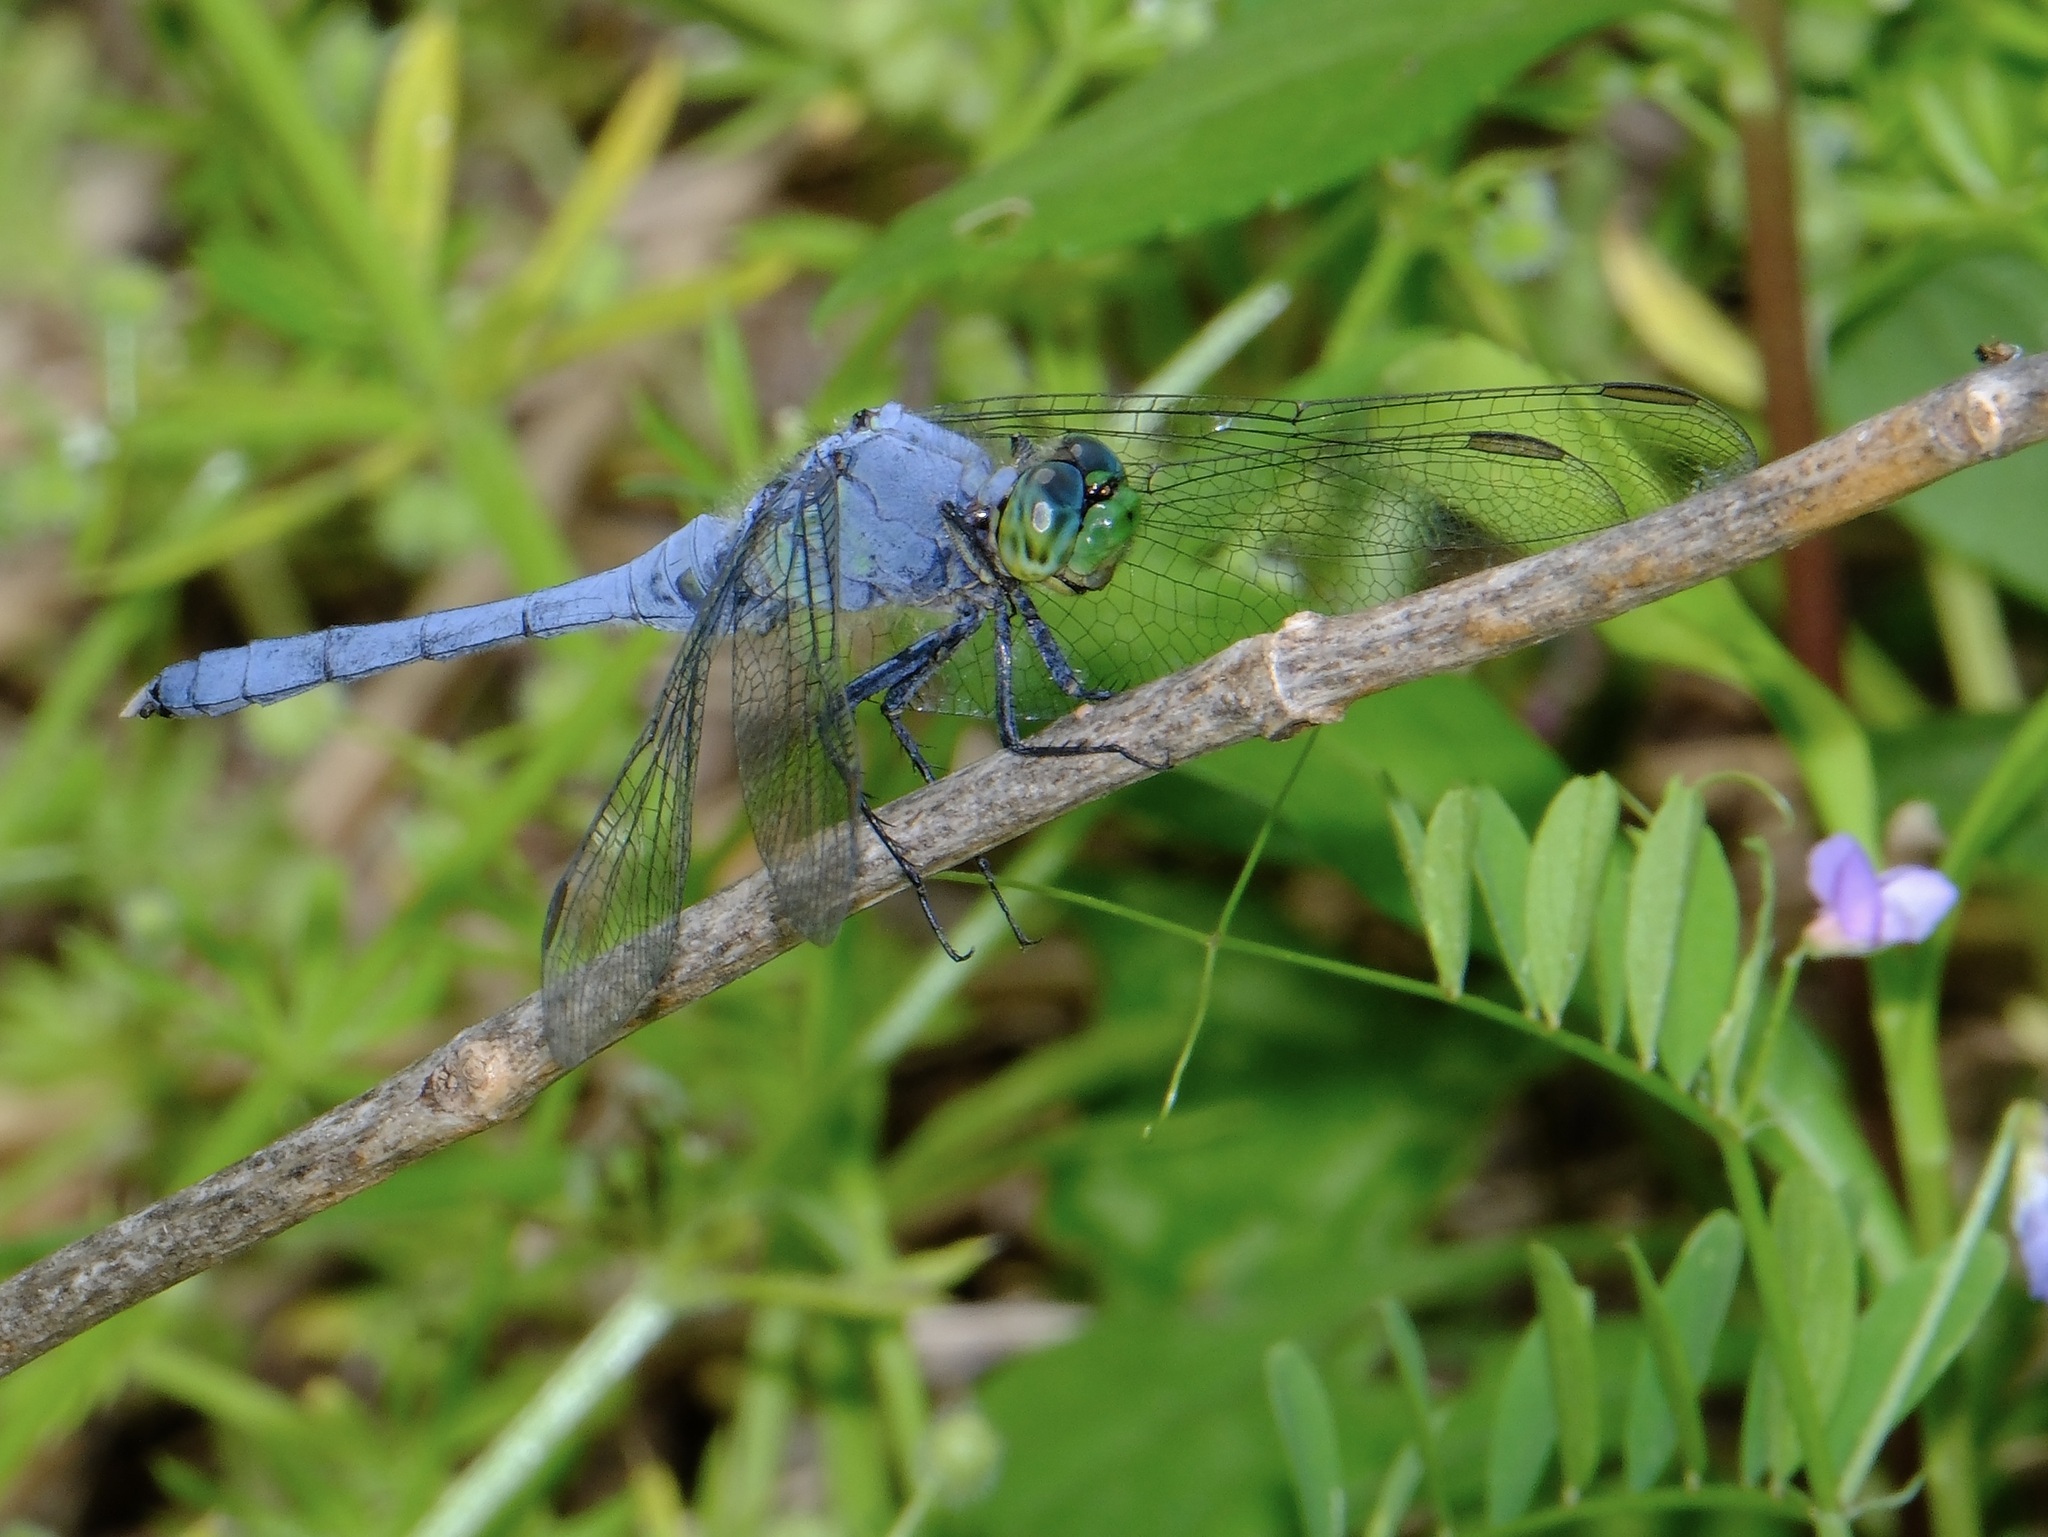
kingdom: Animalia
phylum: Arthropoda
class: Insecta
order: Odonata
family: Libellulidae
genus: Erythemis
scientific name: Erythemis simplicicollis
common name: Eastern pondhawk
